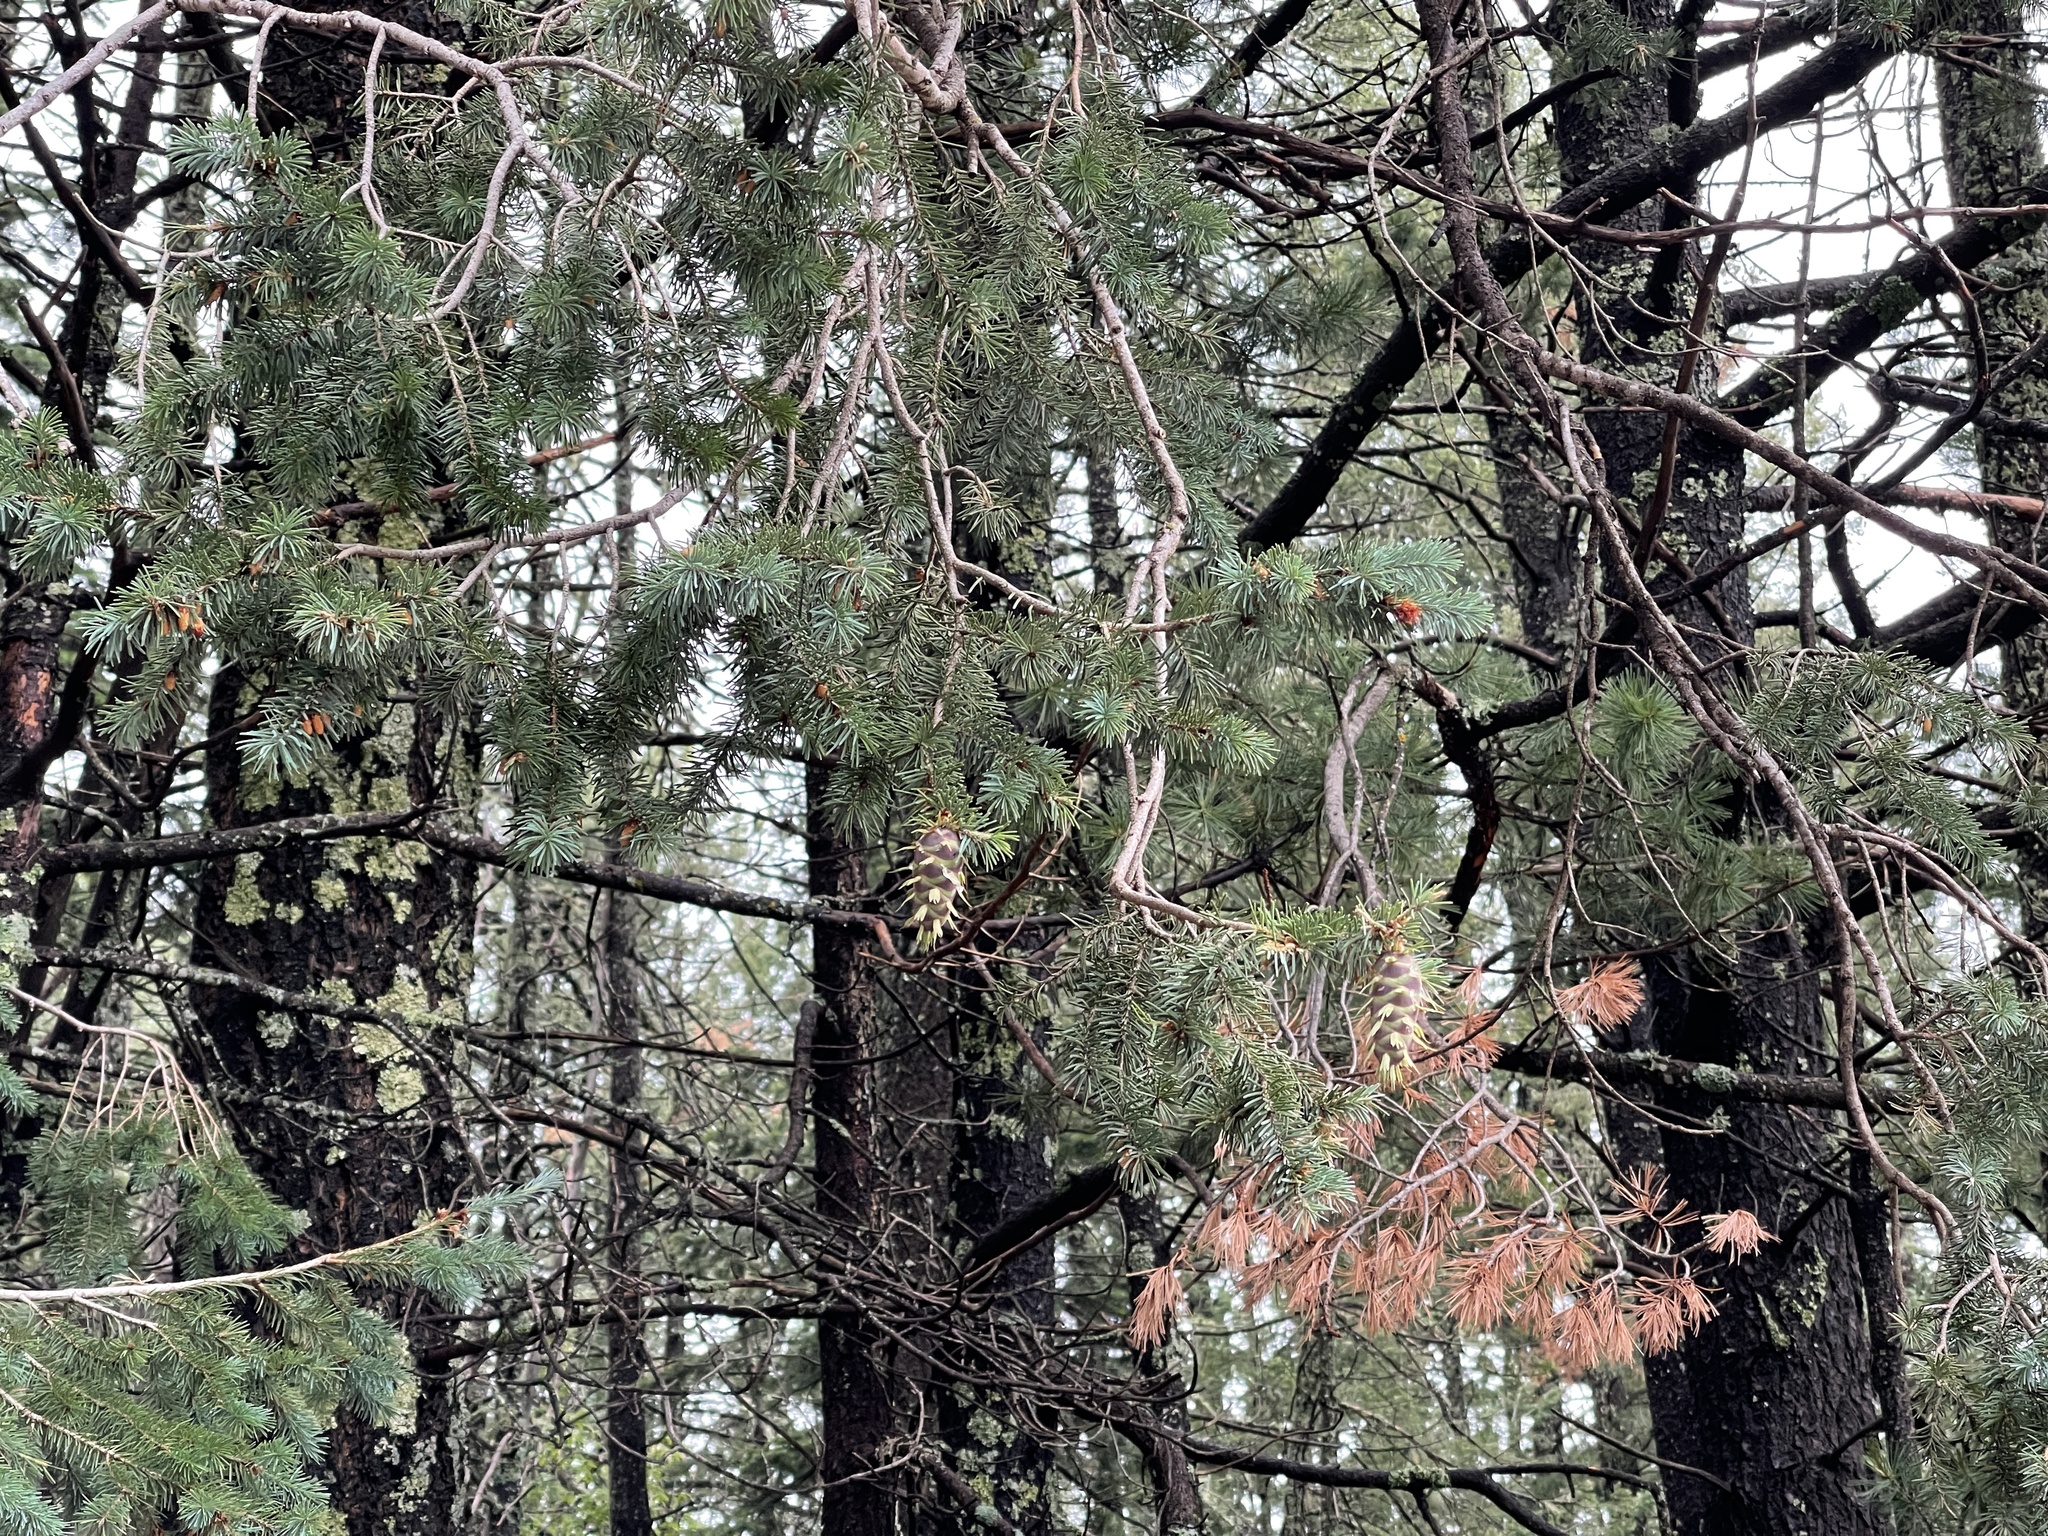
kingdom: Plantae
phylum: Tracheophyta
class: Pinopsida
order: Pinales
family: Pinaceae
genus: Pseudotsuga
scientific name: Pseudotsuga menziesii
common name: Douglas fir
